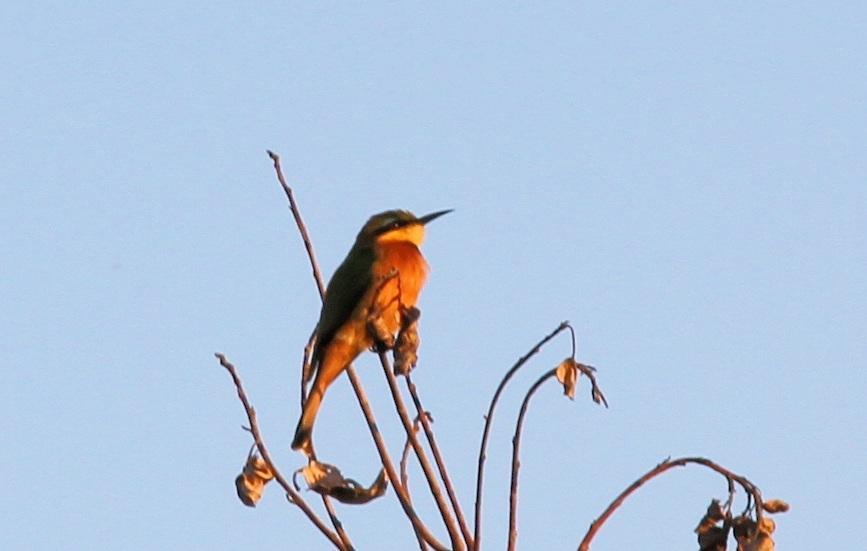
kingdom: Animalia
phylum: Chordata
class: Aves
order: Coraciiformes
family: Meropidae
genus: Merops
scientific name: Merops pusillus
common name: Little bee-eater
